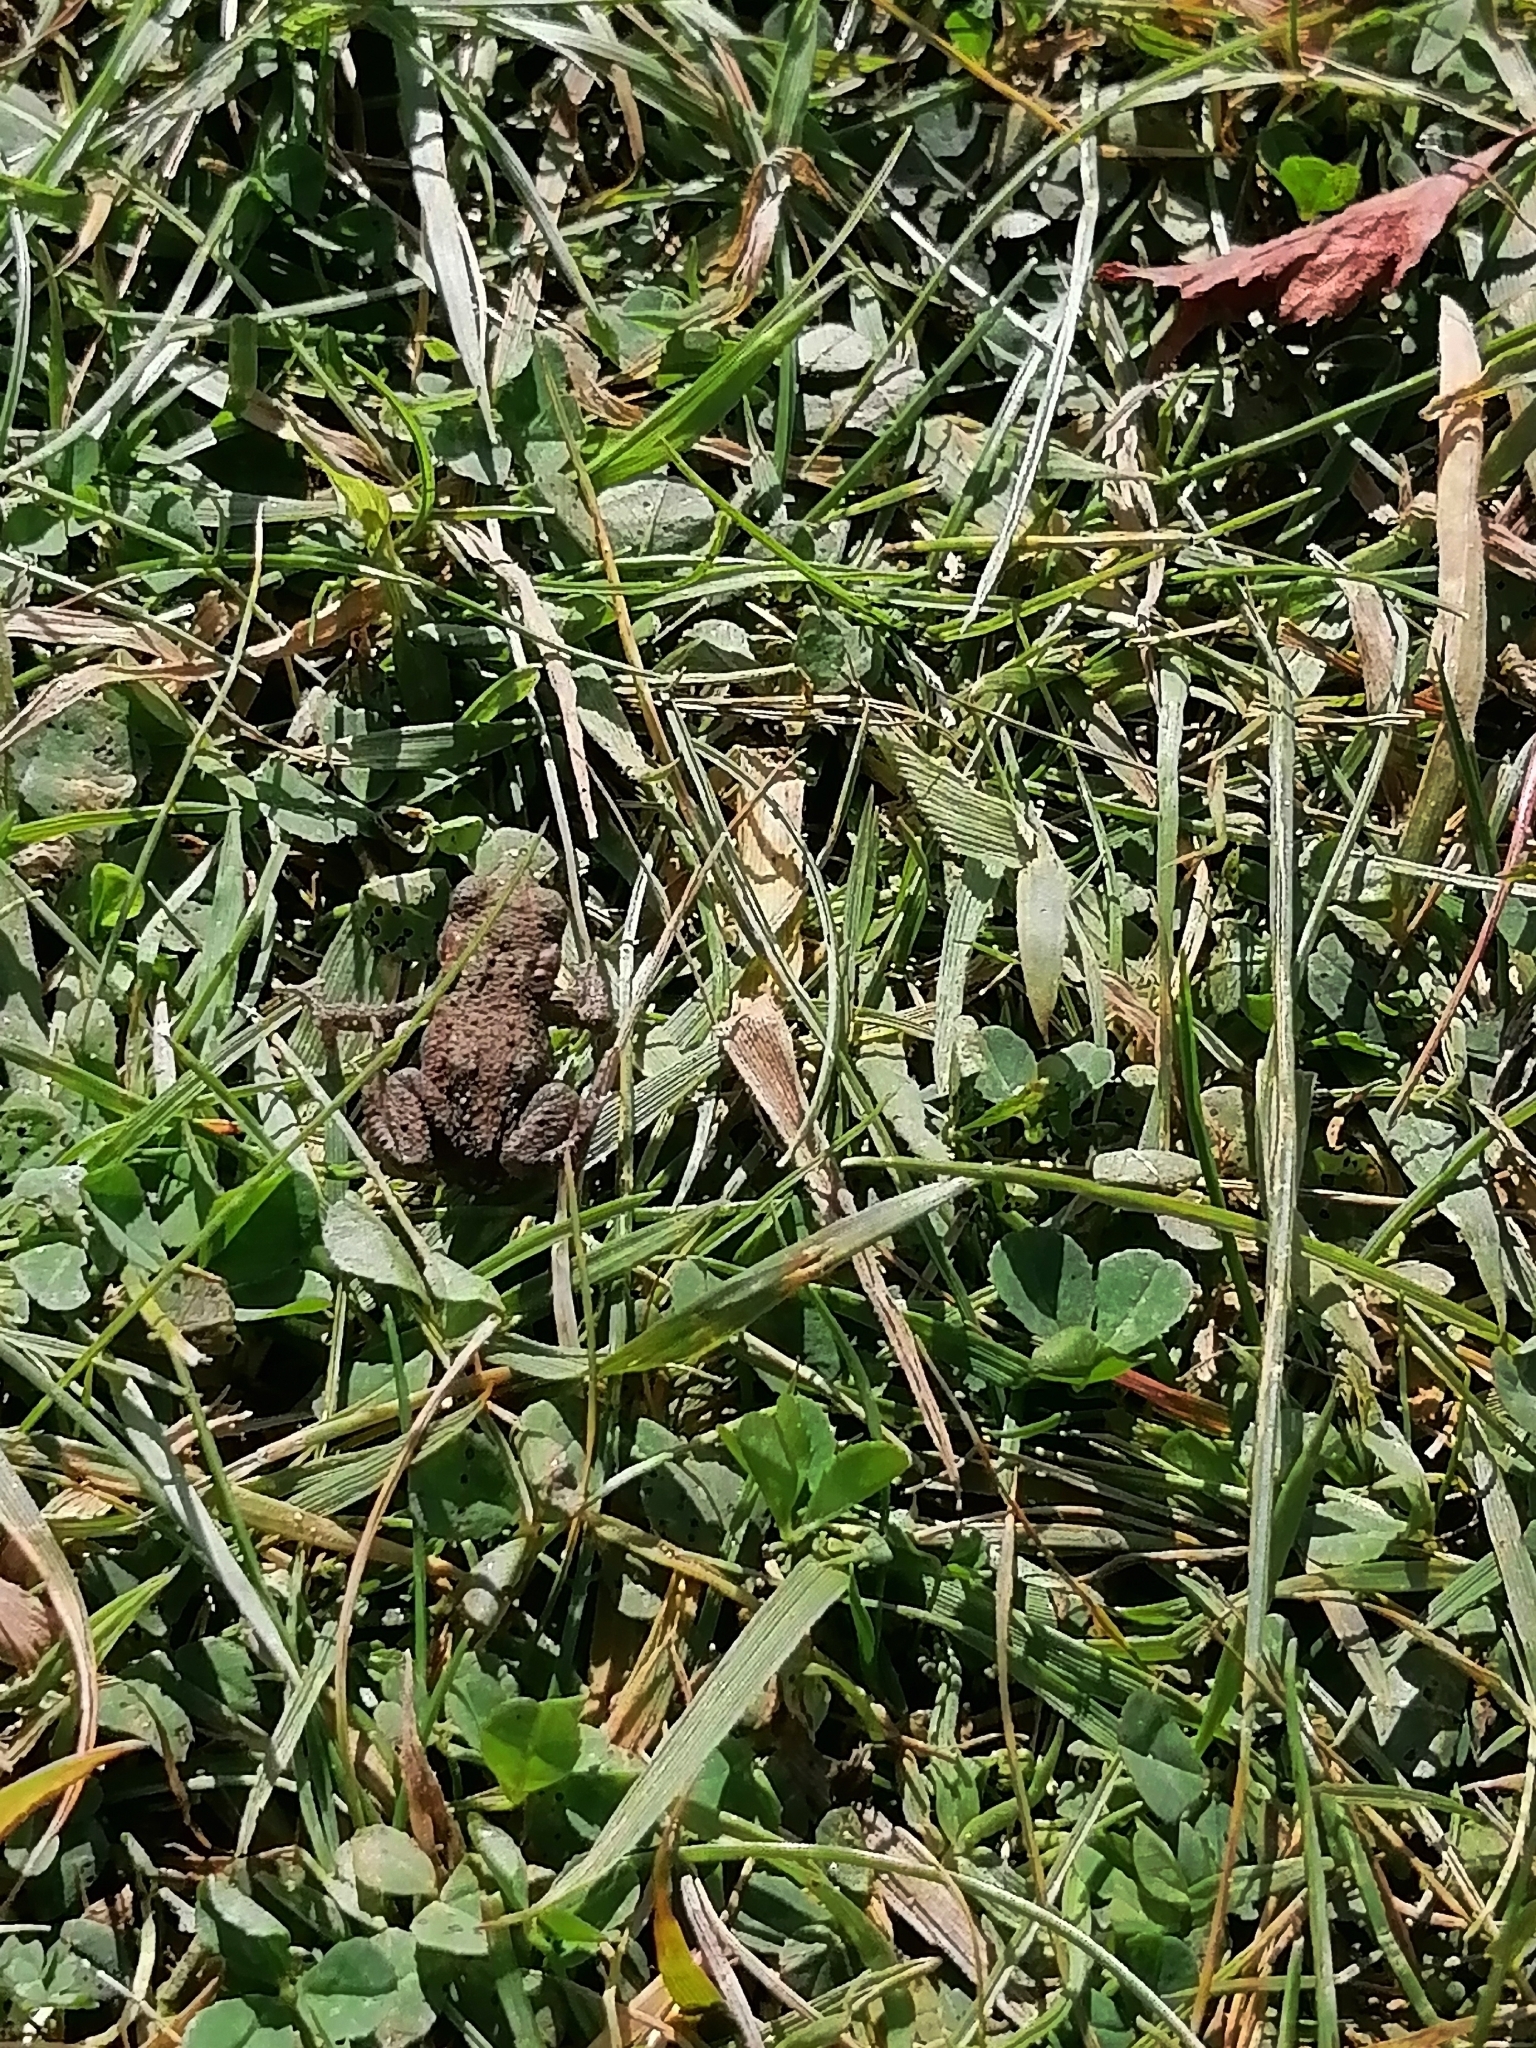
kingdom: Animalia
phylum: Chordata
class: Amphibia
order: Anura
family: Bufonidae
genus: Bufo
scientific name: Bufo bufo
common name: Common toad
